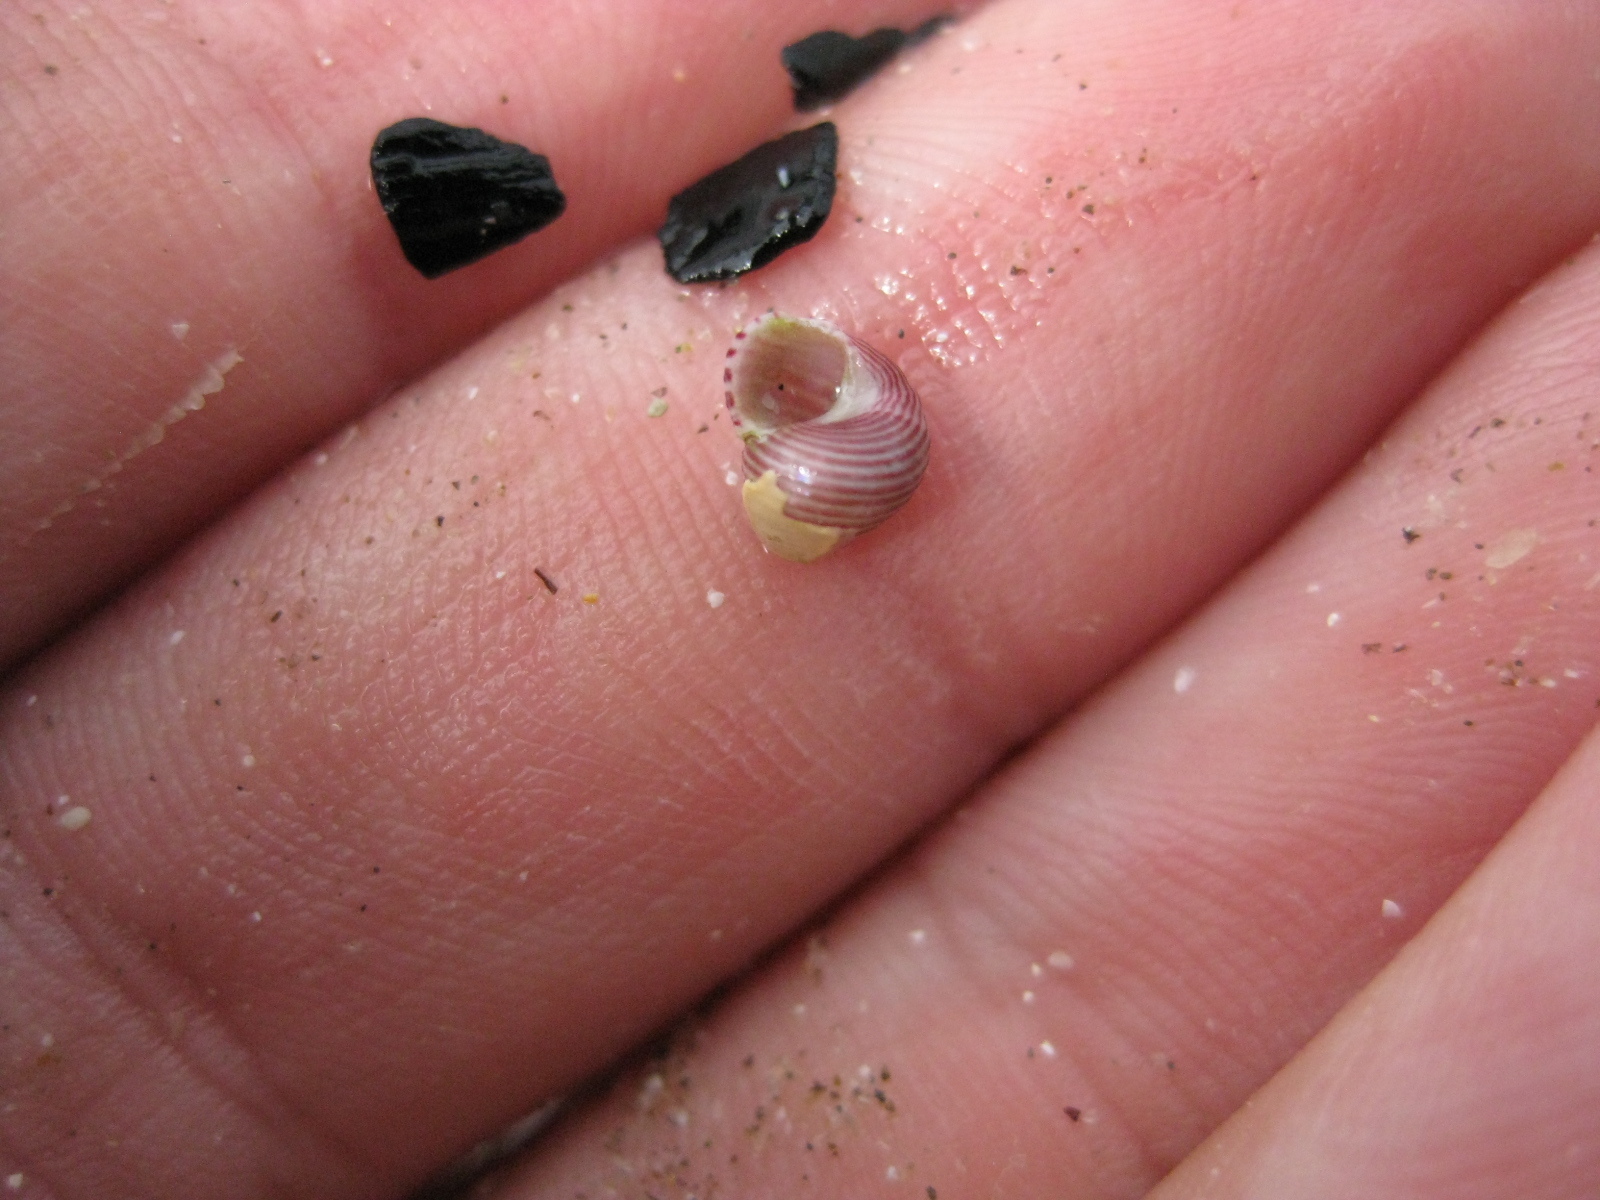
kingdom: Animalia
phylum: Mollusca
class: Gastropoda
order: Trochida
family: Trochidae
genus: Roseaplagis
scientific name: Roseaplagis rufozona
